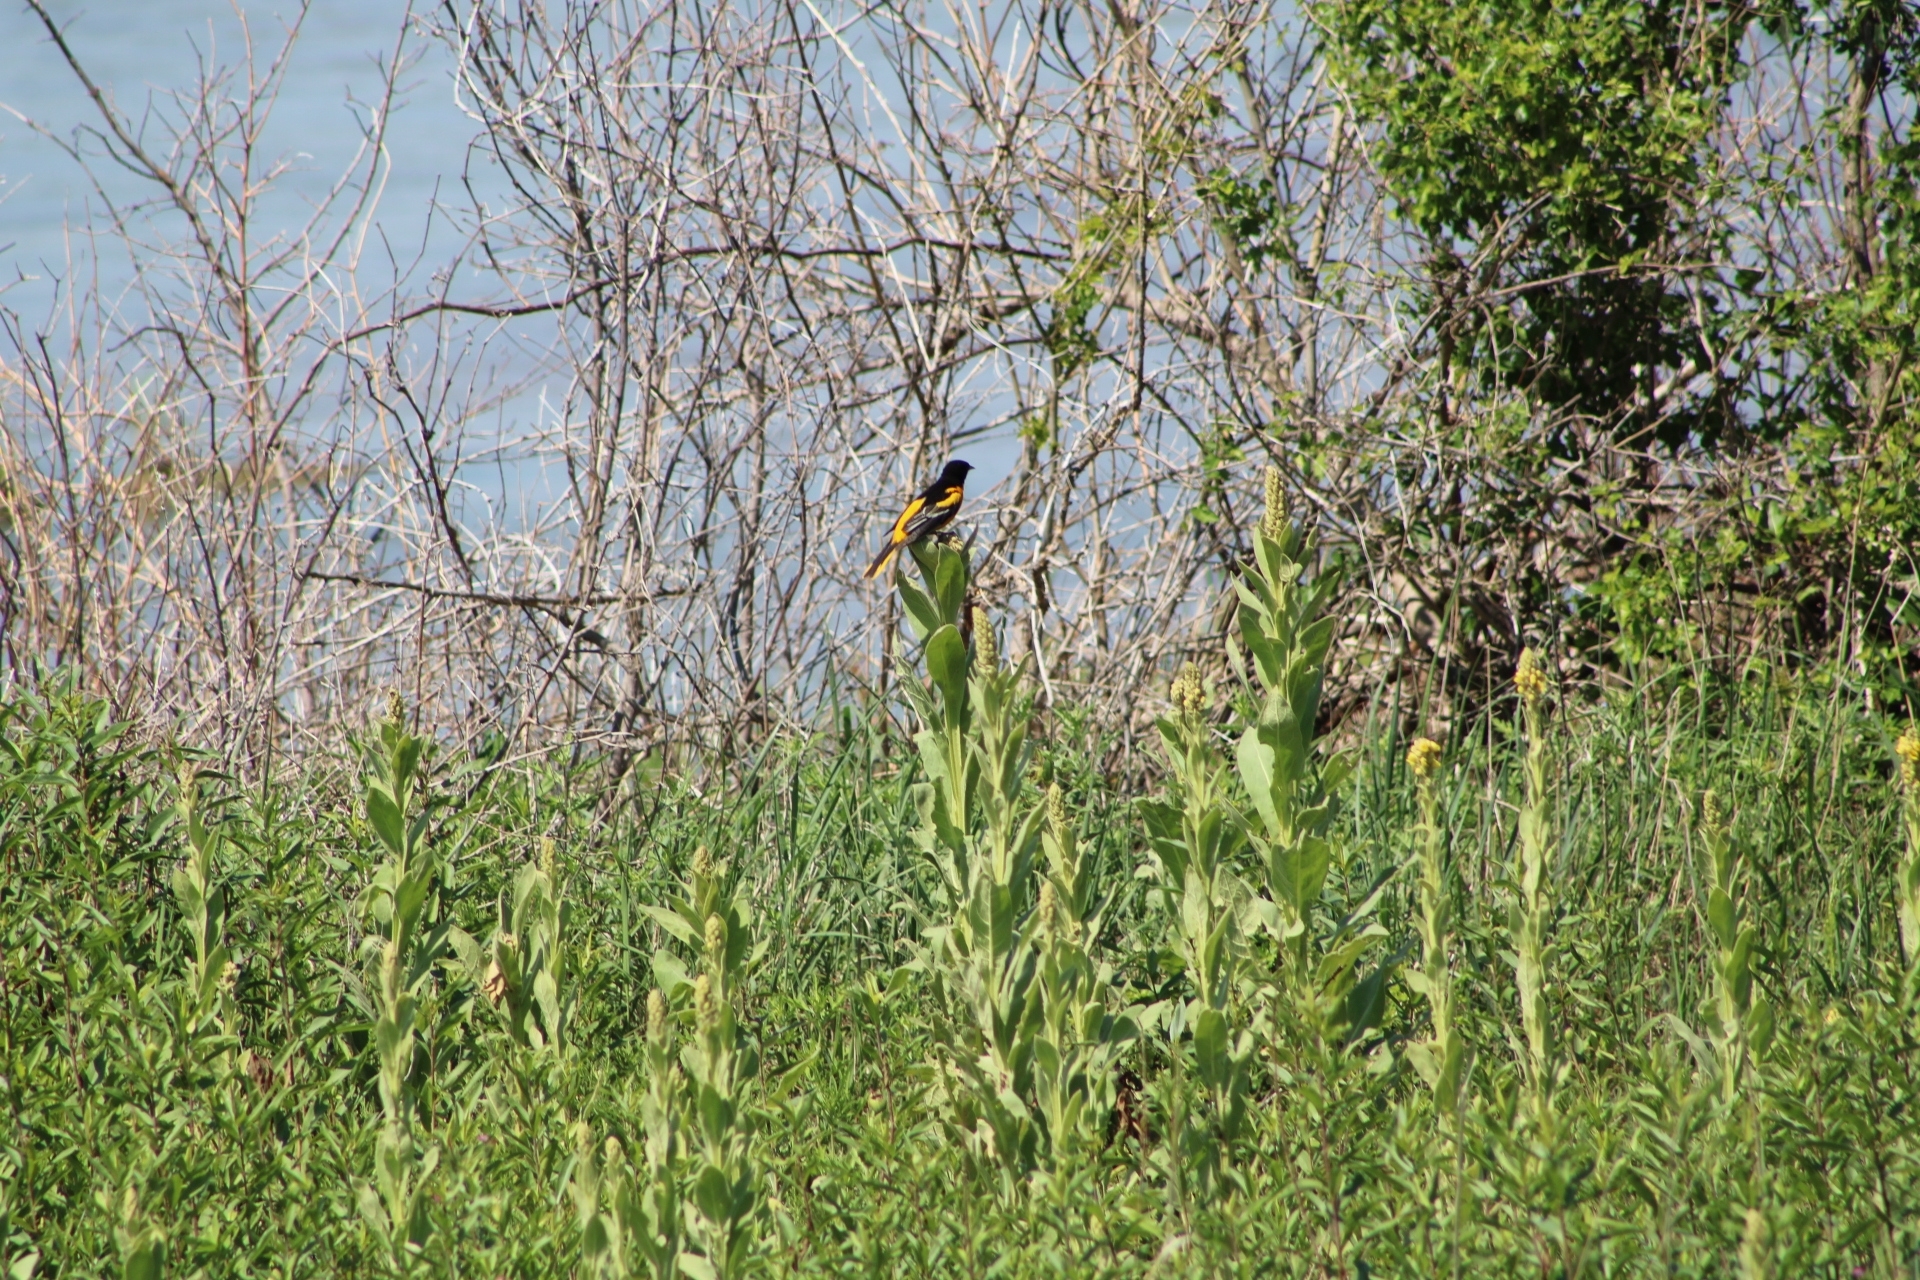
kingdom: Animalia
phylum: Chordata
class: Aves
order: Passeriformes
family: Icteridae
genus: Icterus
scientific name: Icterus galbula
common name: Baltimore oriole
